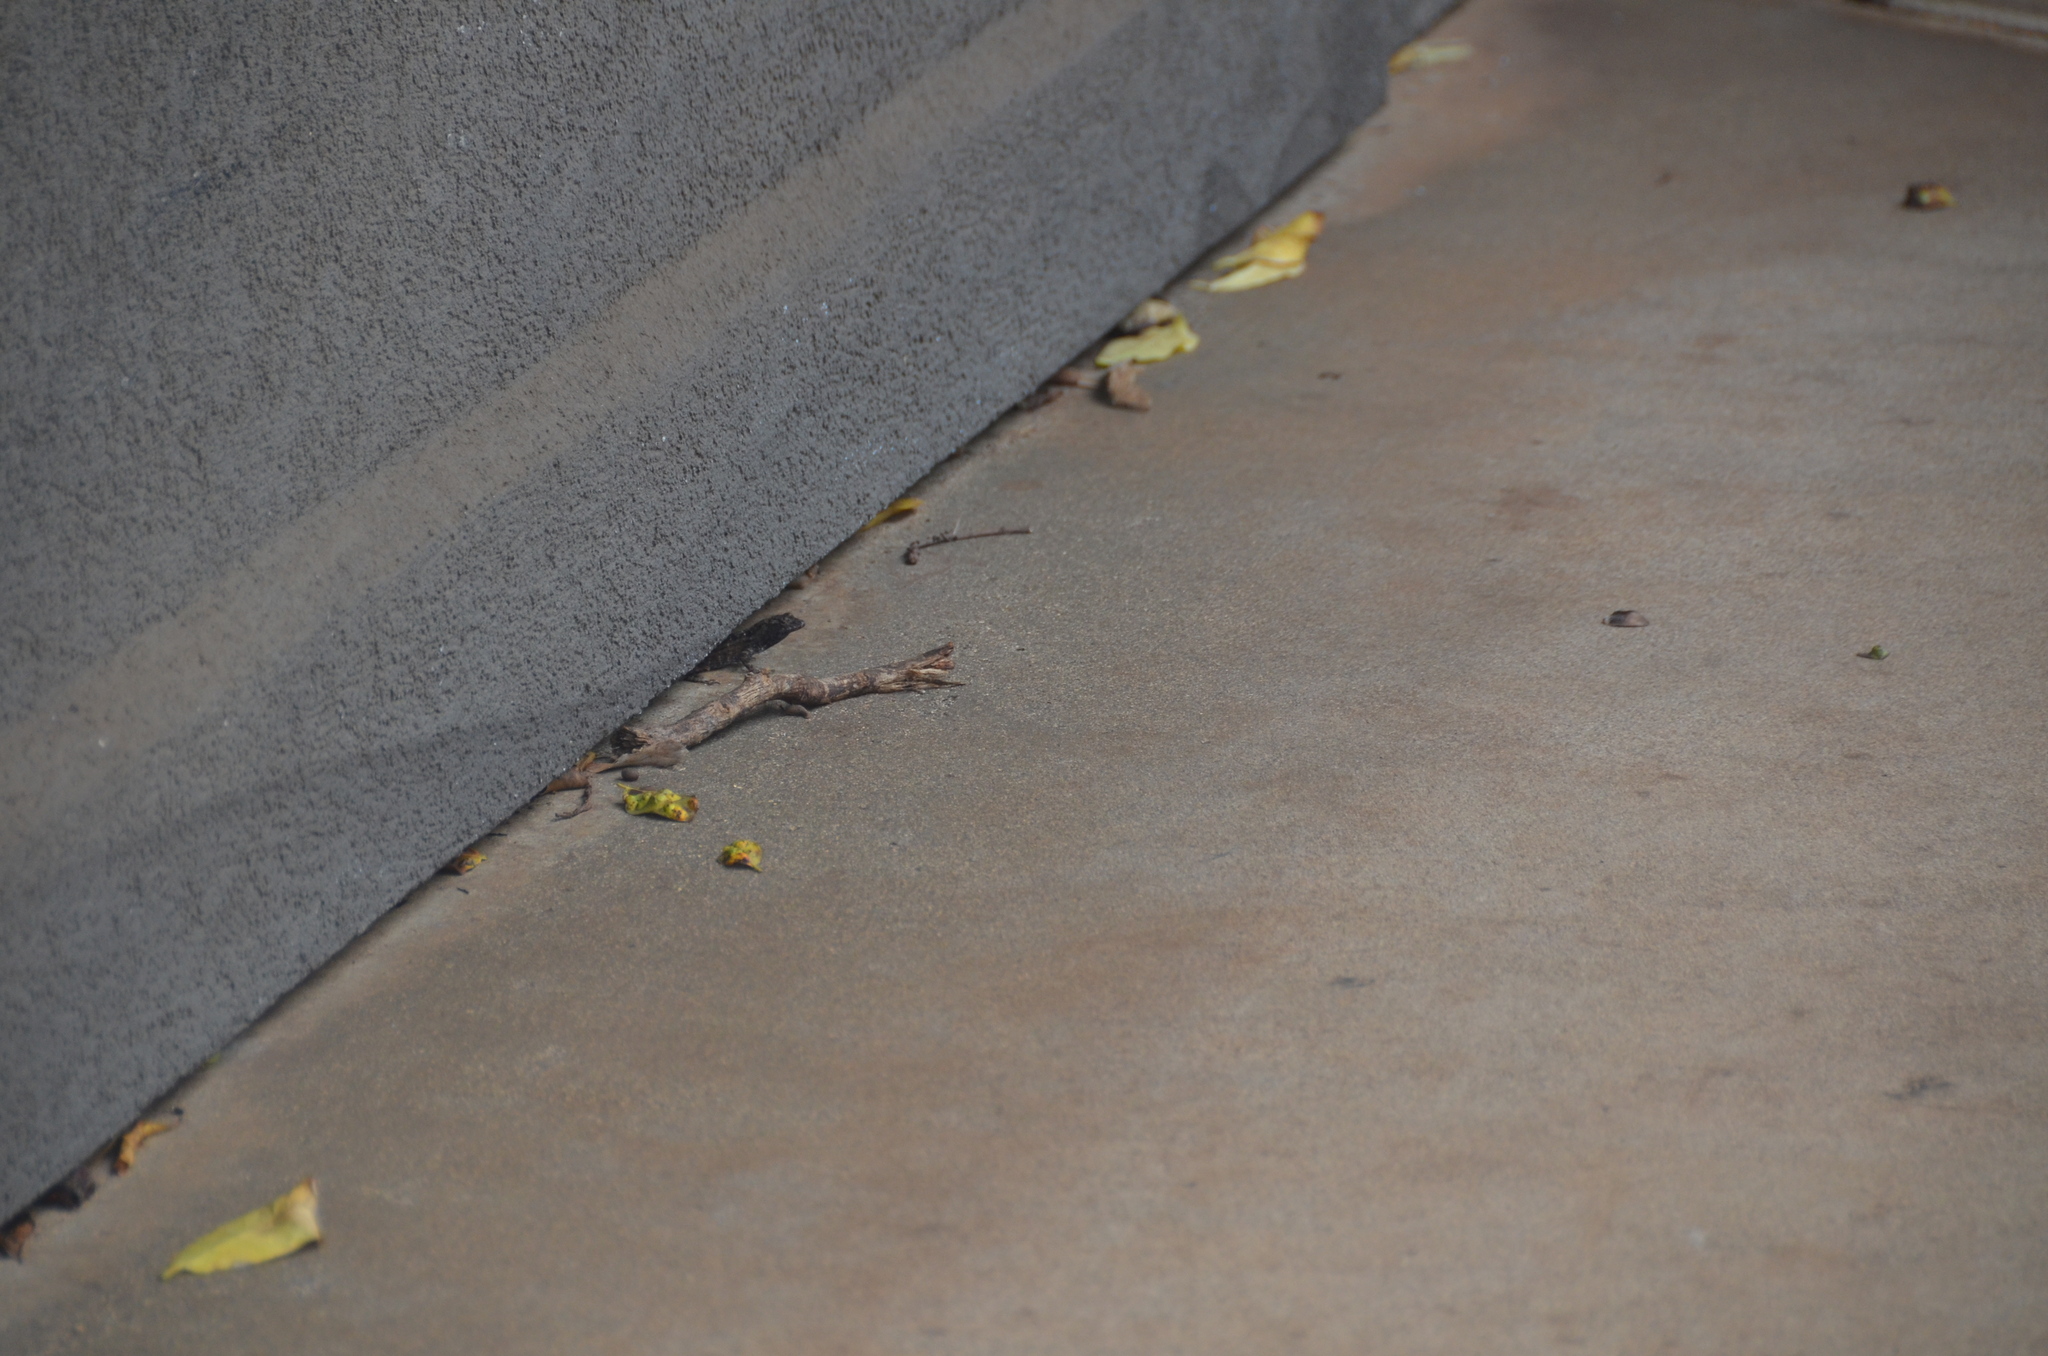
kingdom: Animalia
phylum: Chordata
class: Squamata
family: Dactyloidae
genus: Anolis
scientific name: Anolis sagrei
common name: Brown anole
